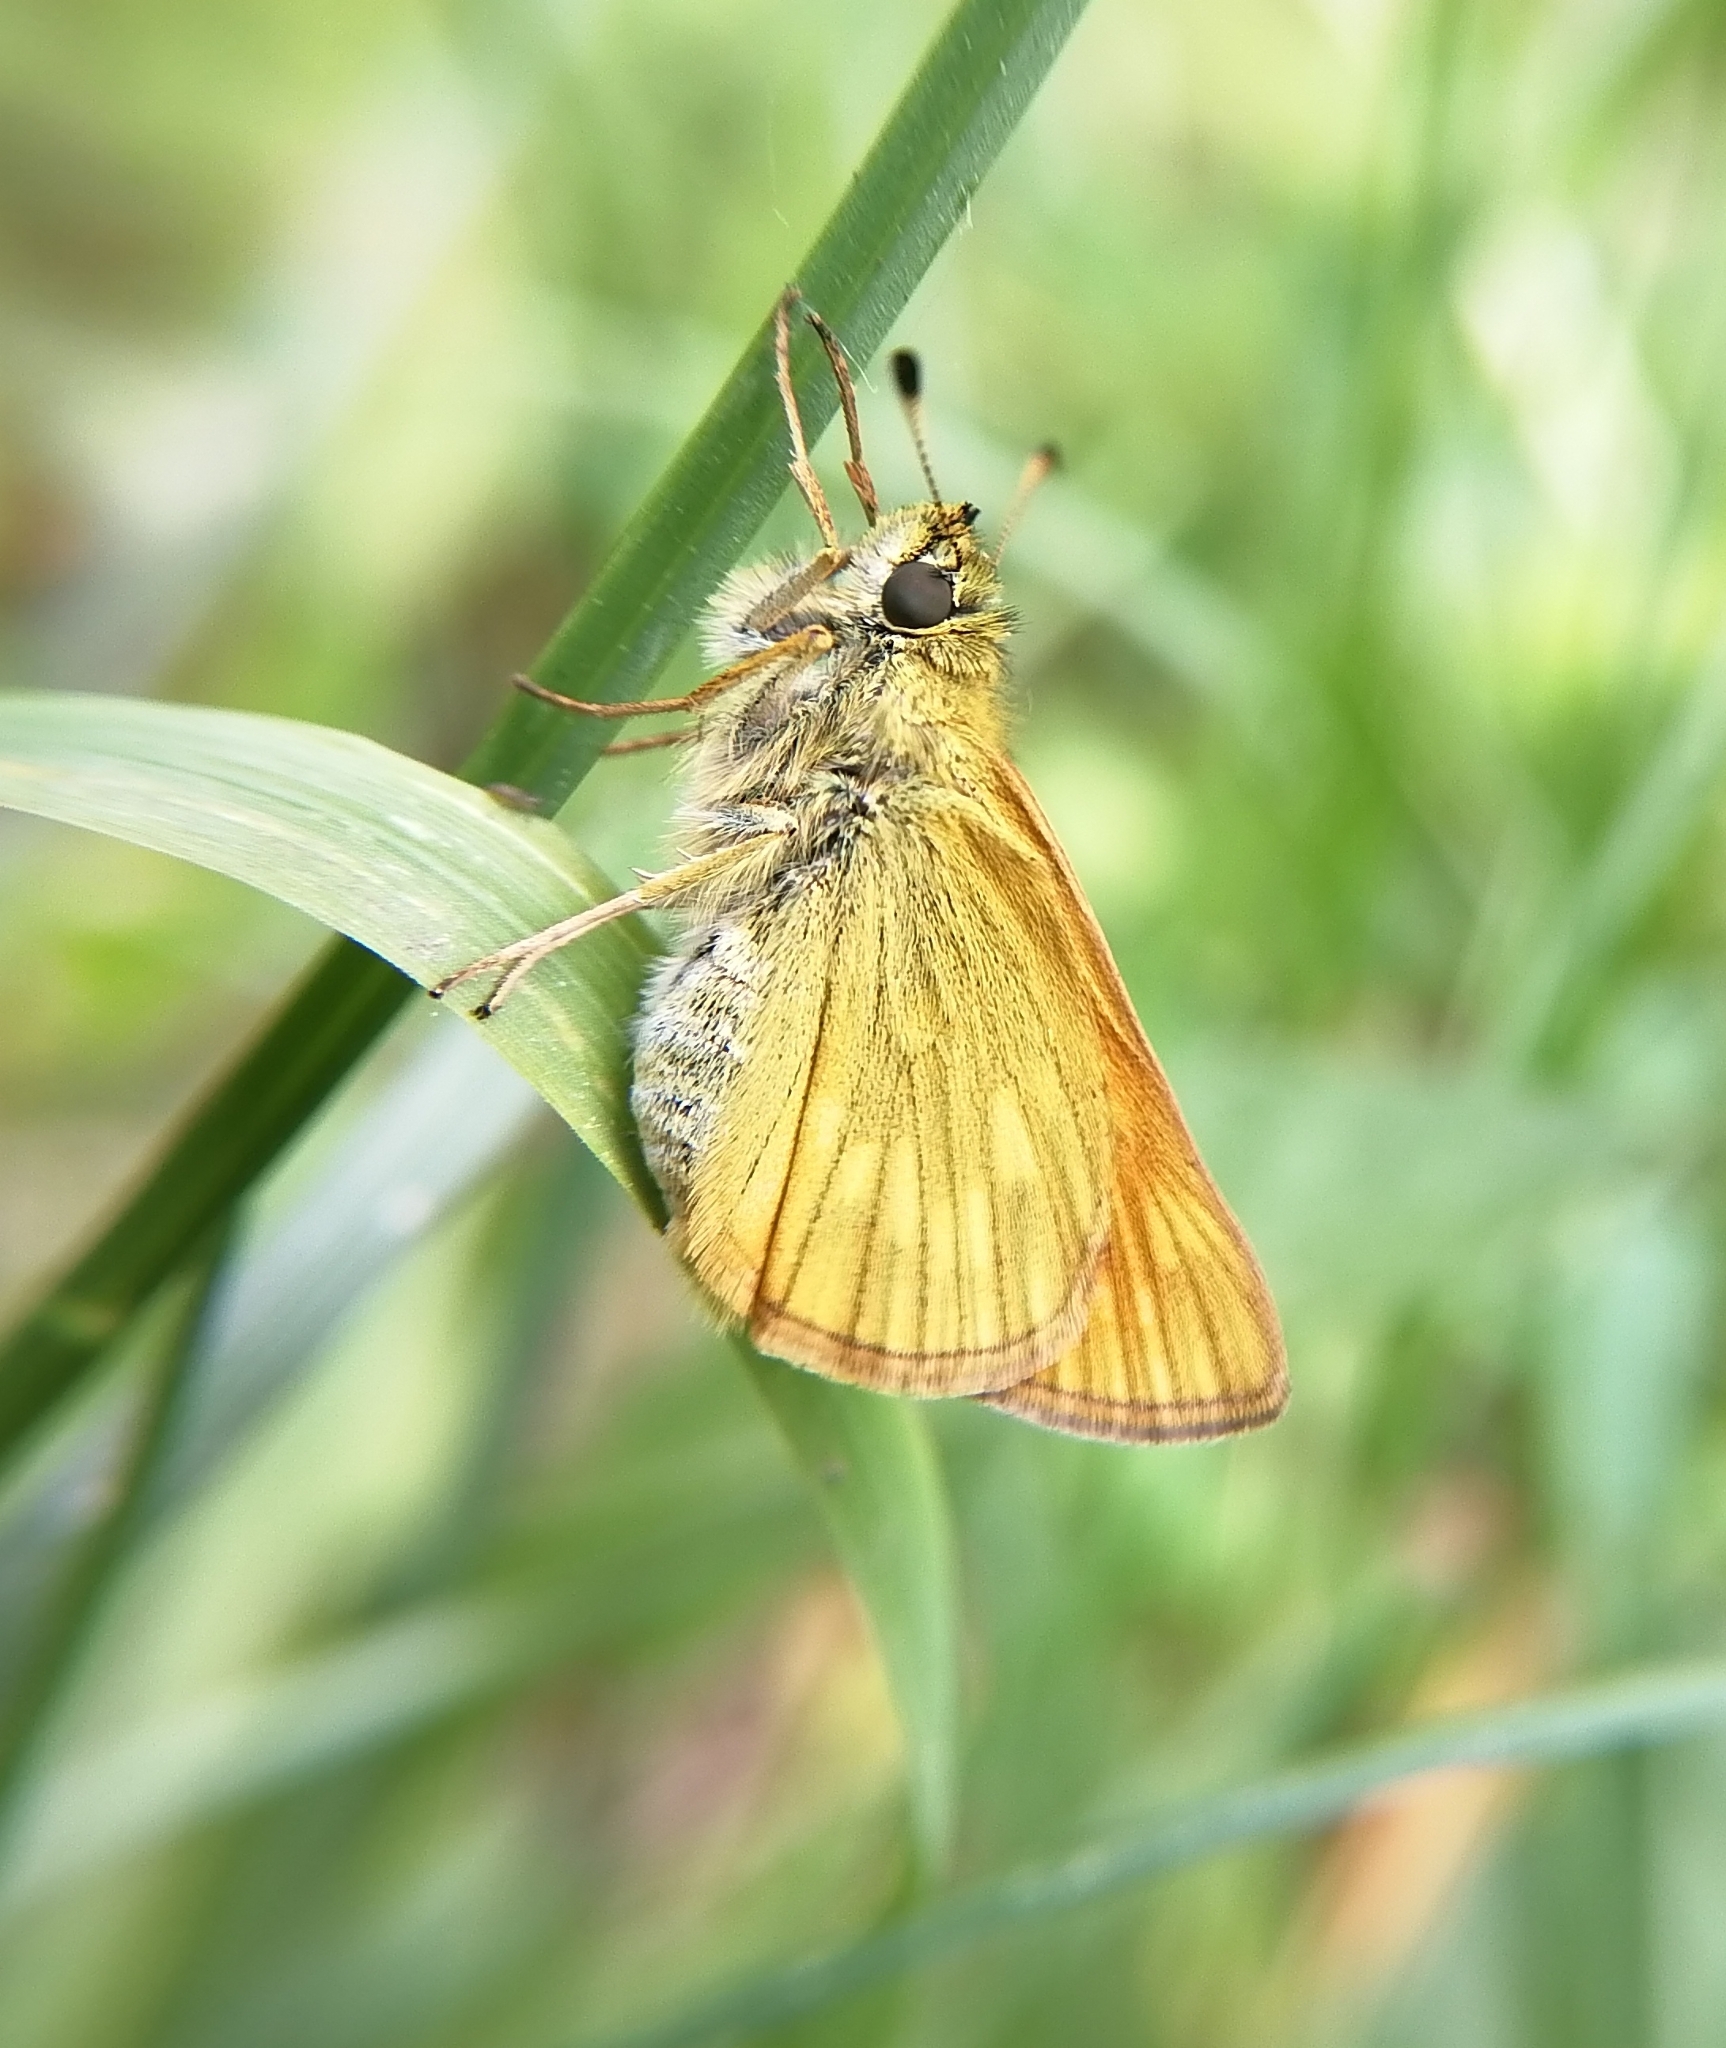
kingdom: Animalia
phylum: Arthropoda
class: Insecta
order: Lepidoptera
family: Hesperiidae
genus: Ochlodes
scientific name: Ochlodes venata
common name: Large skipper
